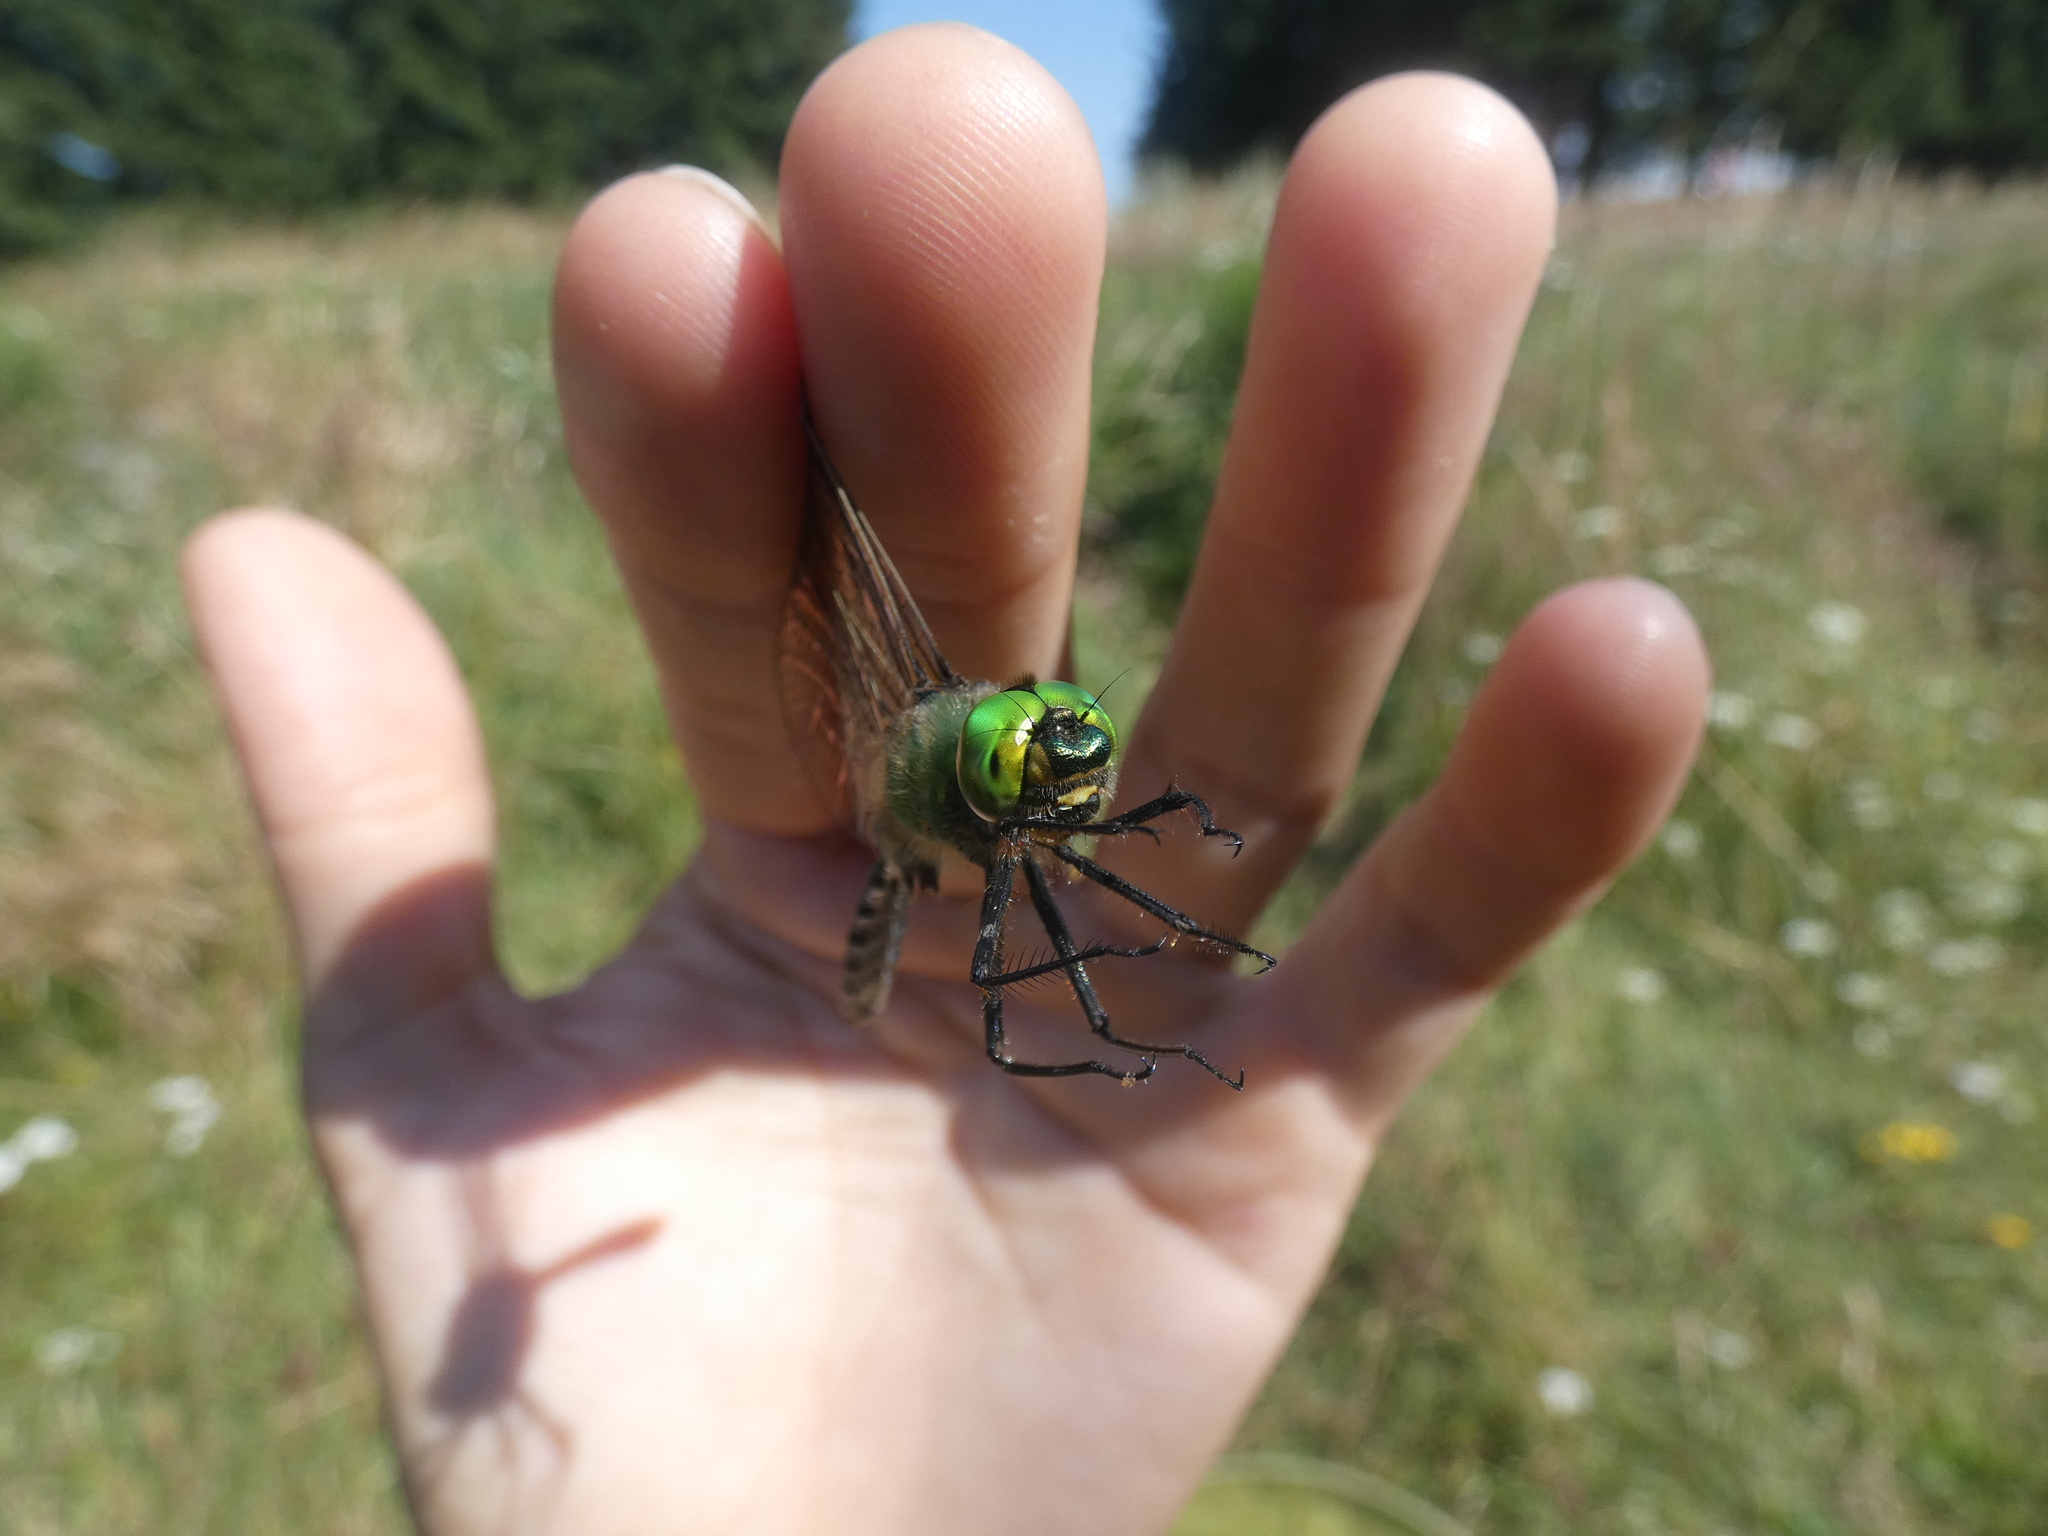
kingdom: Animalia
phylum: Arthropoda
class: Insecta
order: Odonata
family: Corduliidae
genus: Somatochlora
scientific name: Somatochlora metallica
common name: Brilliant emerald
